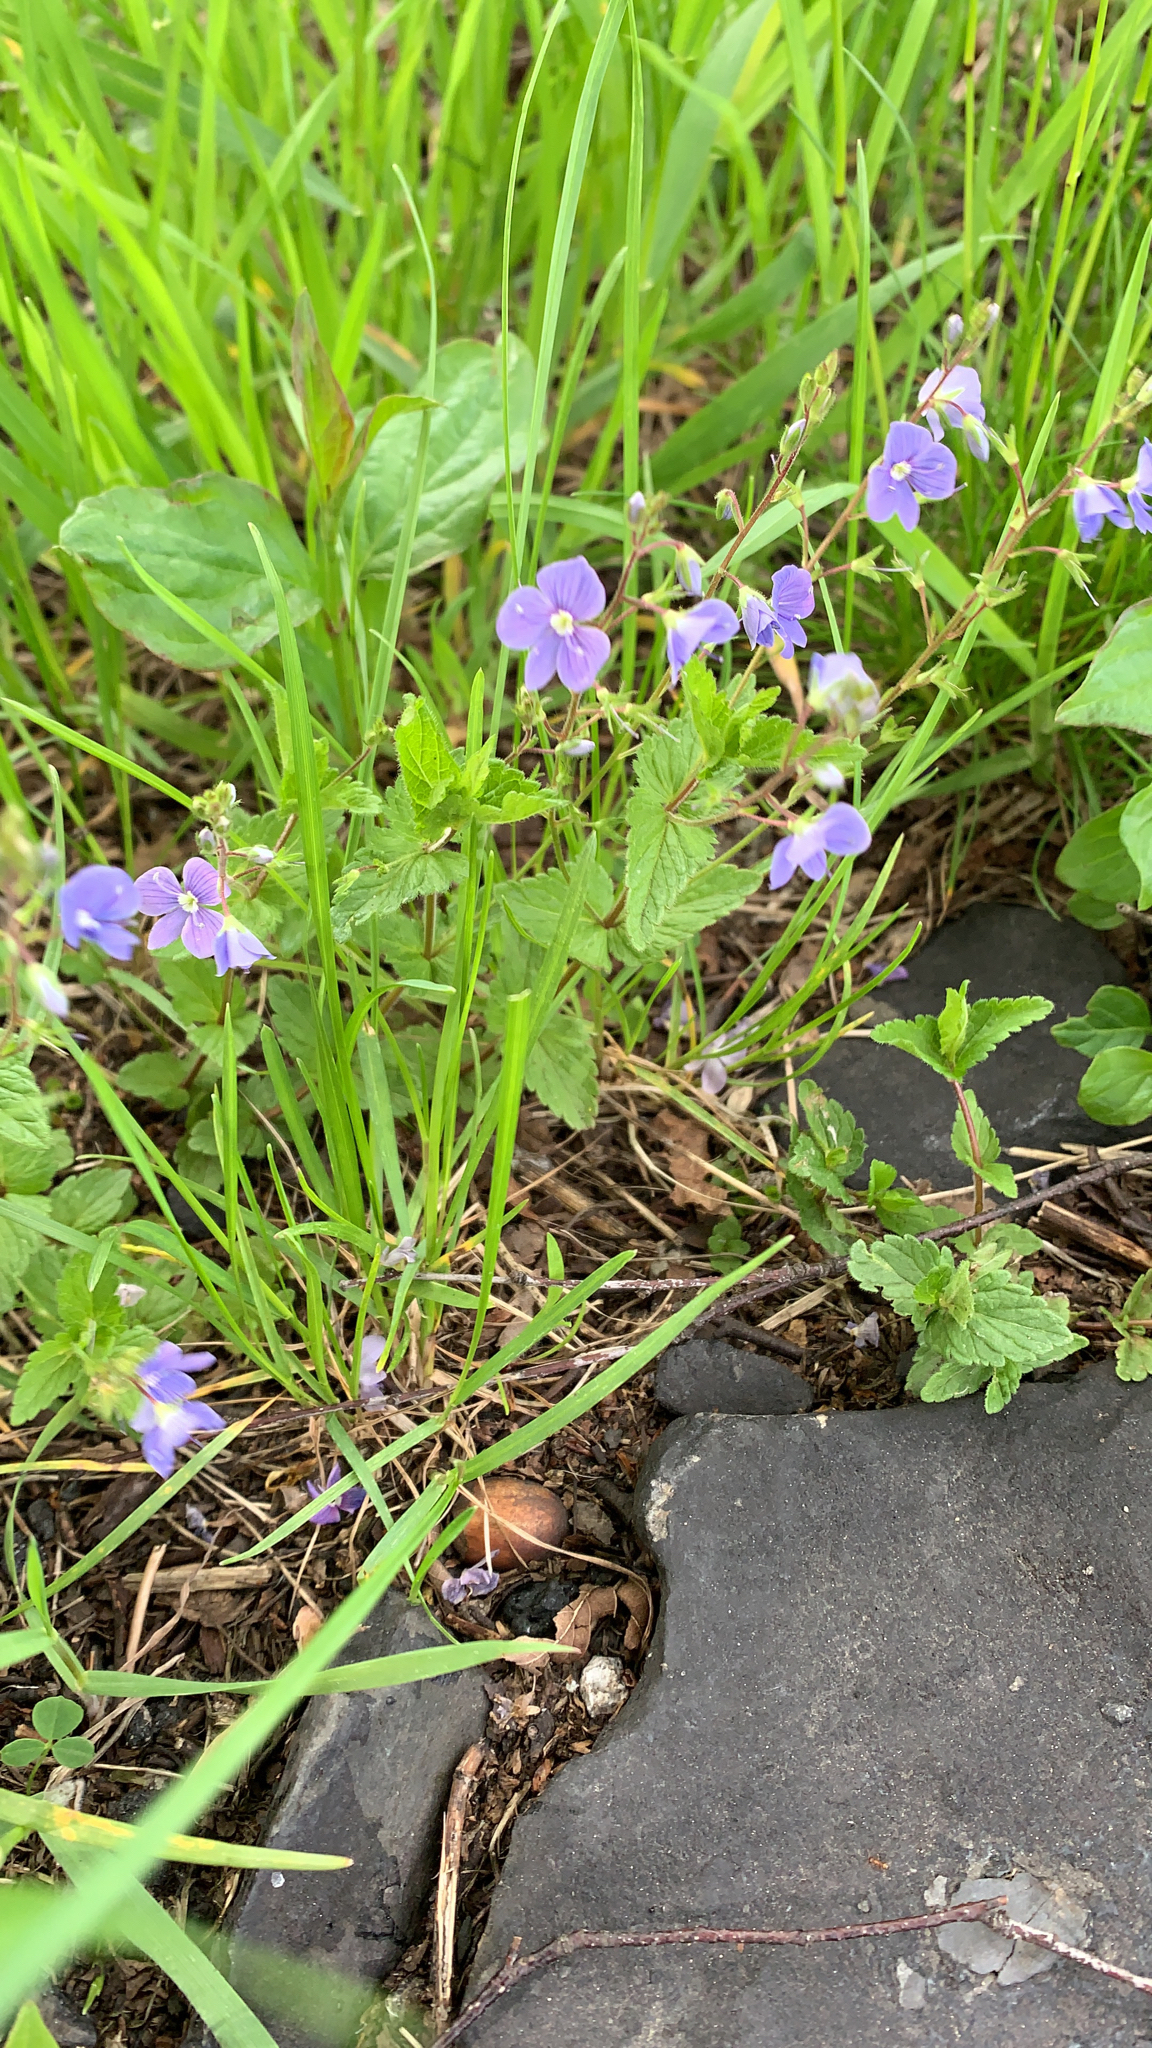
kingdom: Plantae
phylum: Tracheophyta
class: Magnoliopsida
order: Lamiales
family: Plantaginaceae
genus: Veronica
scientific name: Veronica chamaedrys
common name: Germander speedwell
